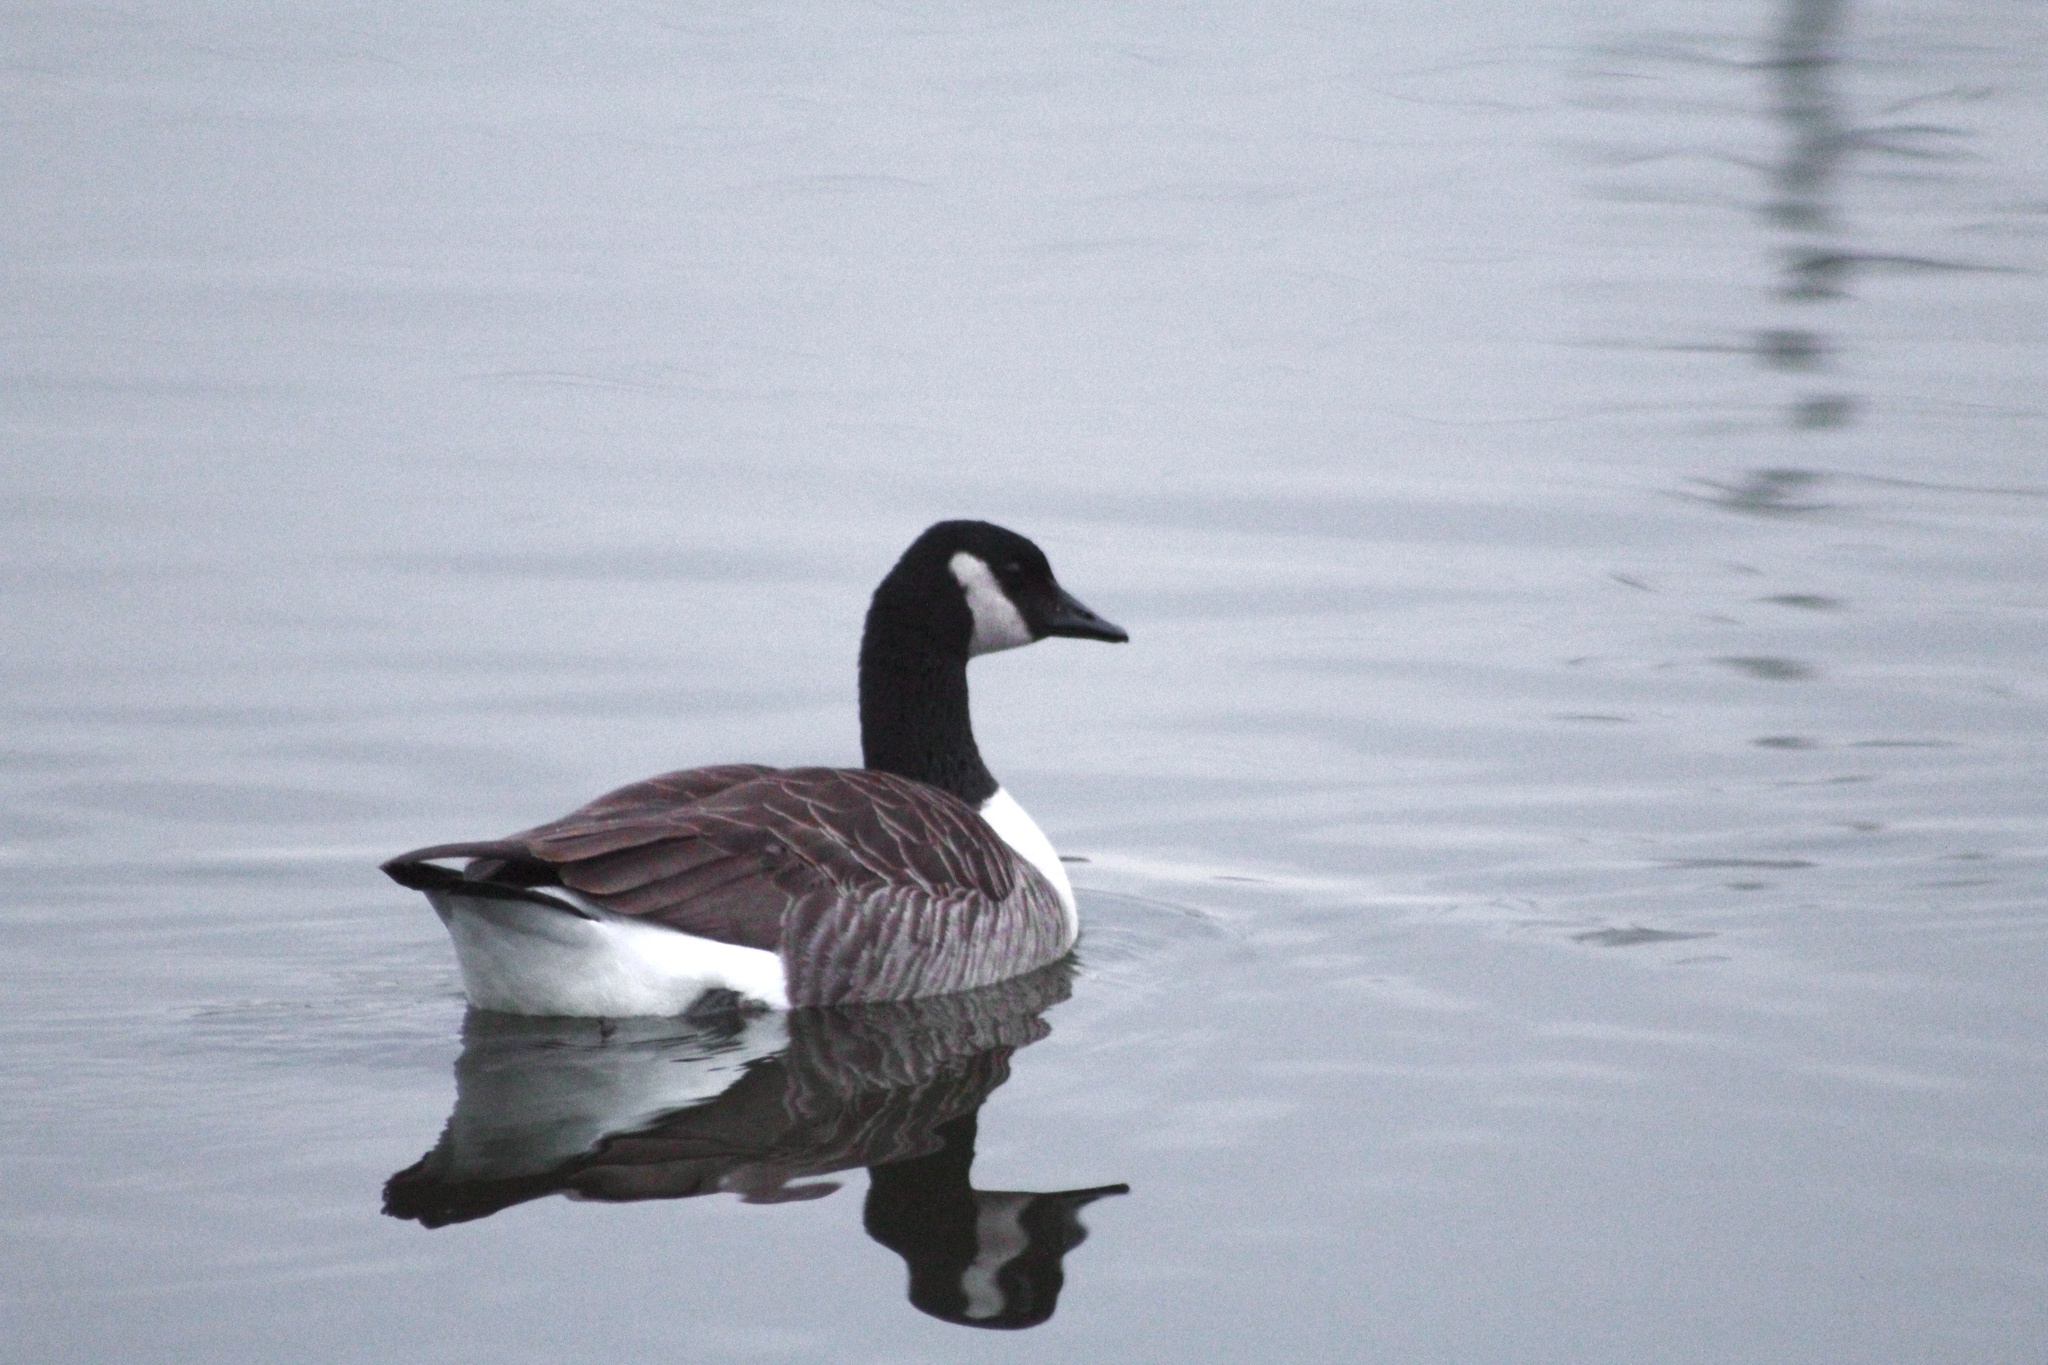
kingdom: Animalia
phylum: Chordata
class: Aves
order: Anseriformes
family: Anatidae
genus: Branta
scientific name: Branta canadensis
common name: Canada goose
